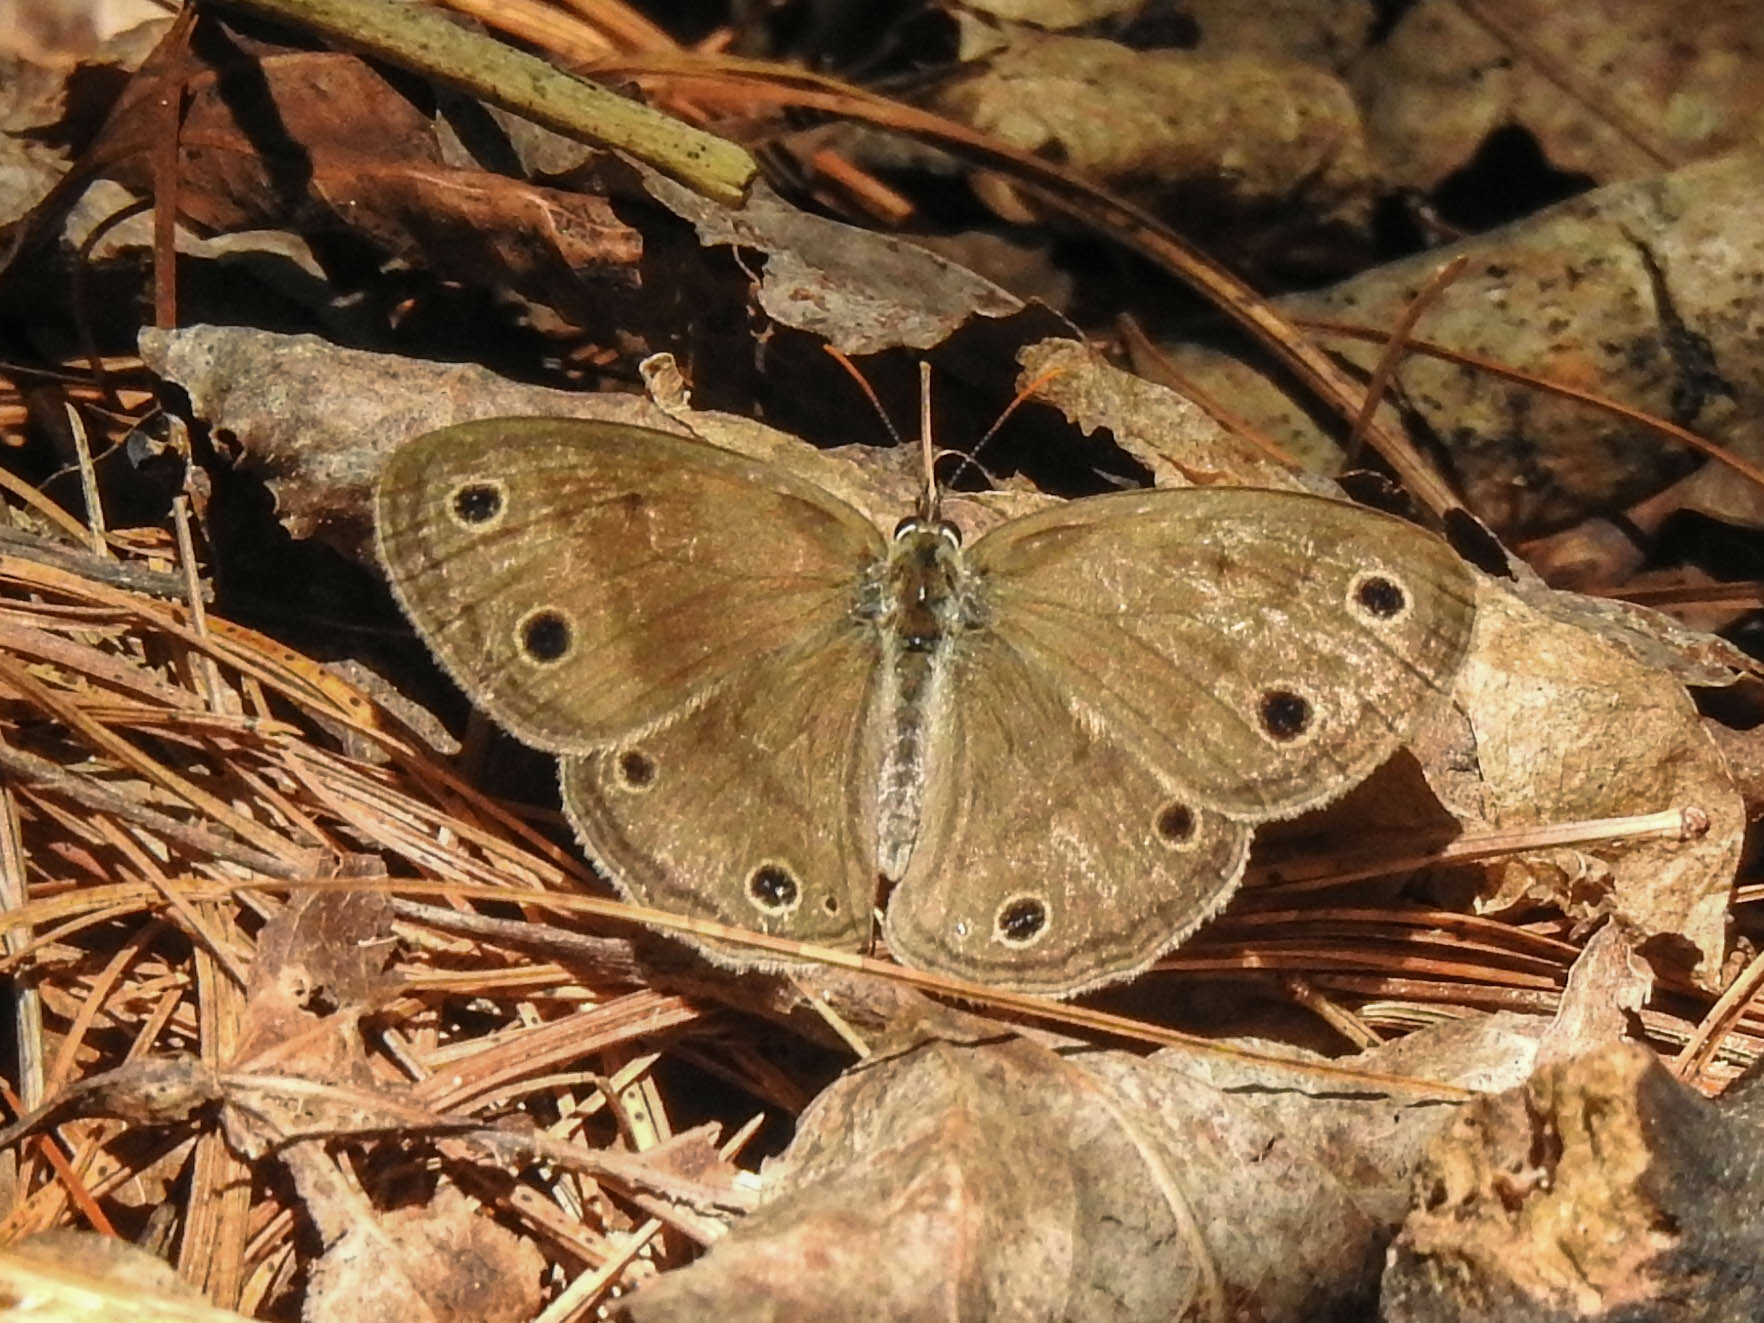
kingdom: Animalia
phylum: Arthropoda
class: Insecta
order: Lepidoptera
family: Nymphalidae
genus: Euptychia
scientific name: Euptychia cymela
